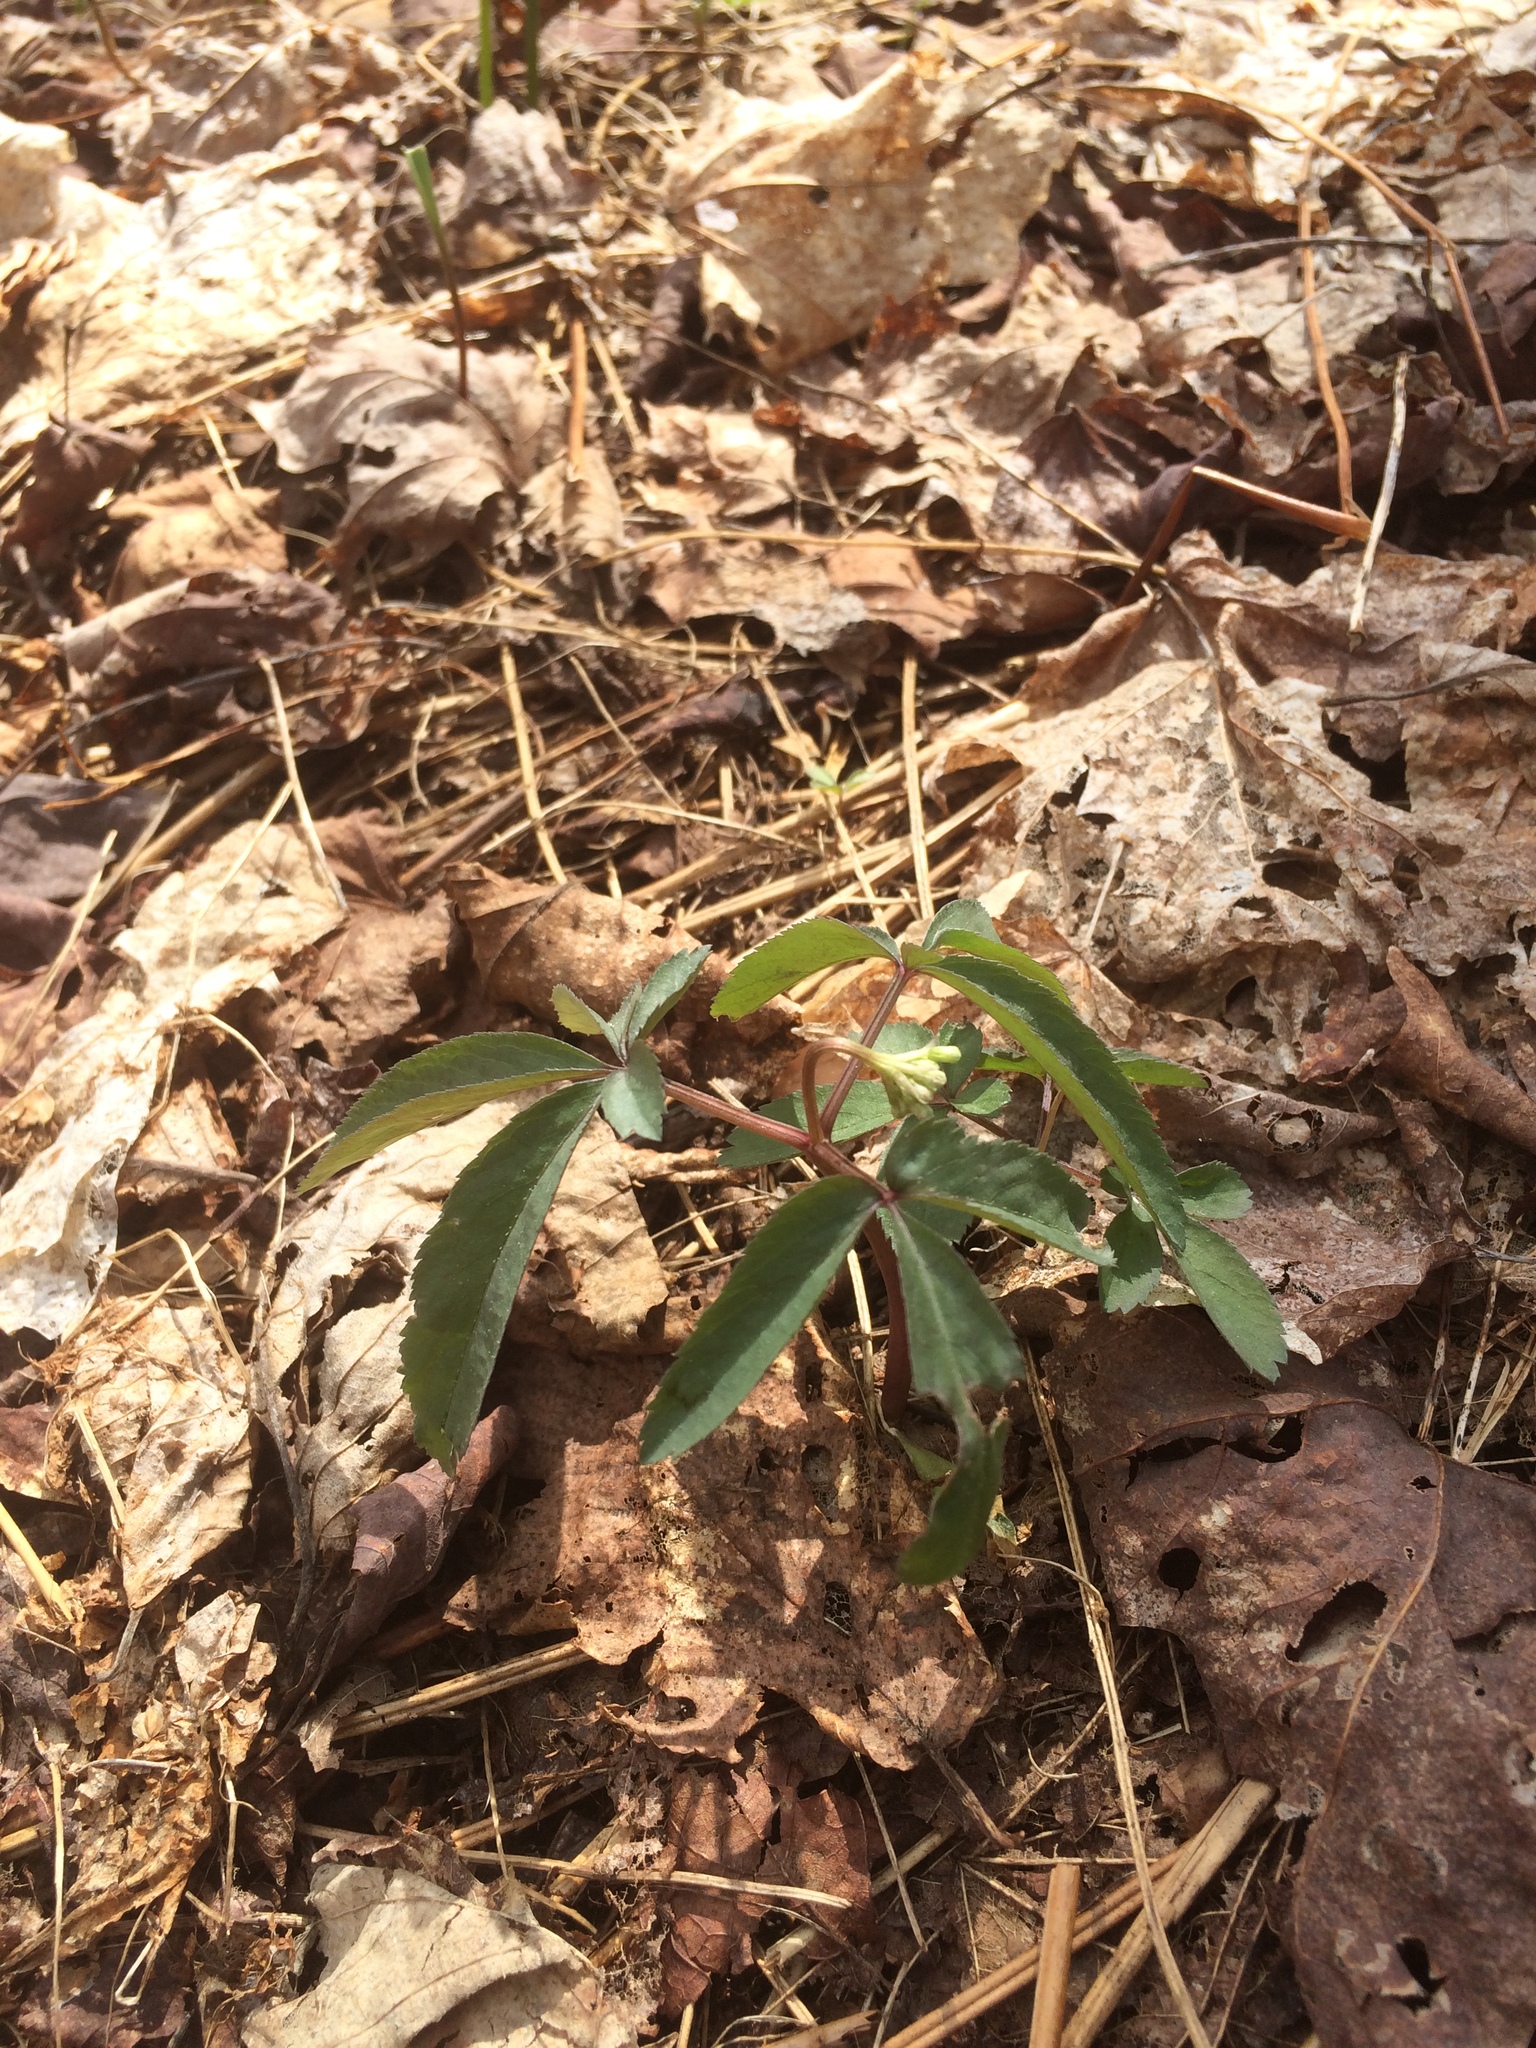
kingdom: Plantae
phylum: Tracheophyta
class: Magnoliopsida
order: Apiales
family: Araliaceae
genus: Panax
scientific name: Panax trifolius
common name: Dwarf ginseng
